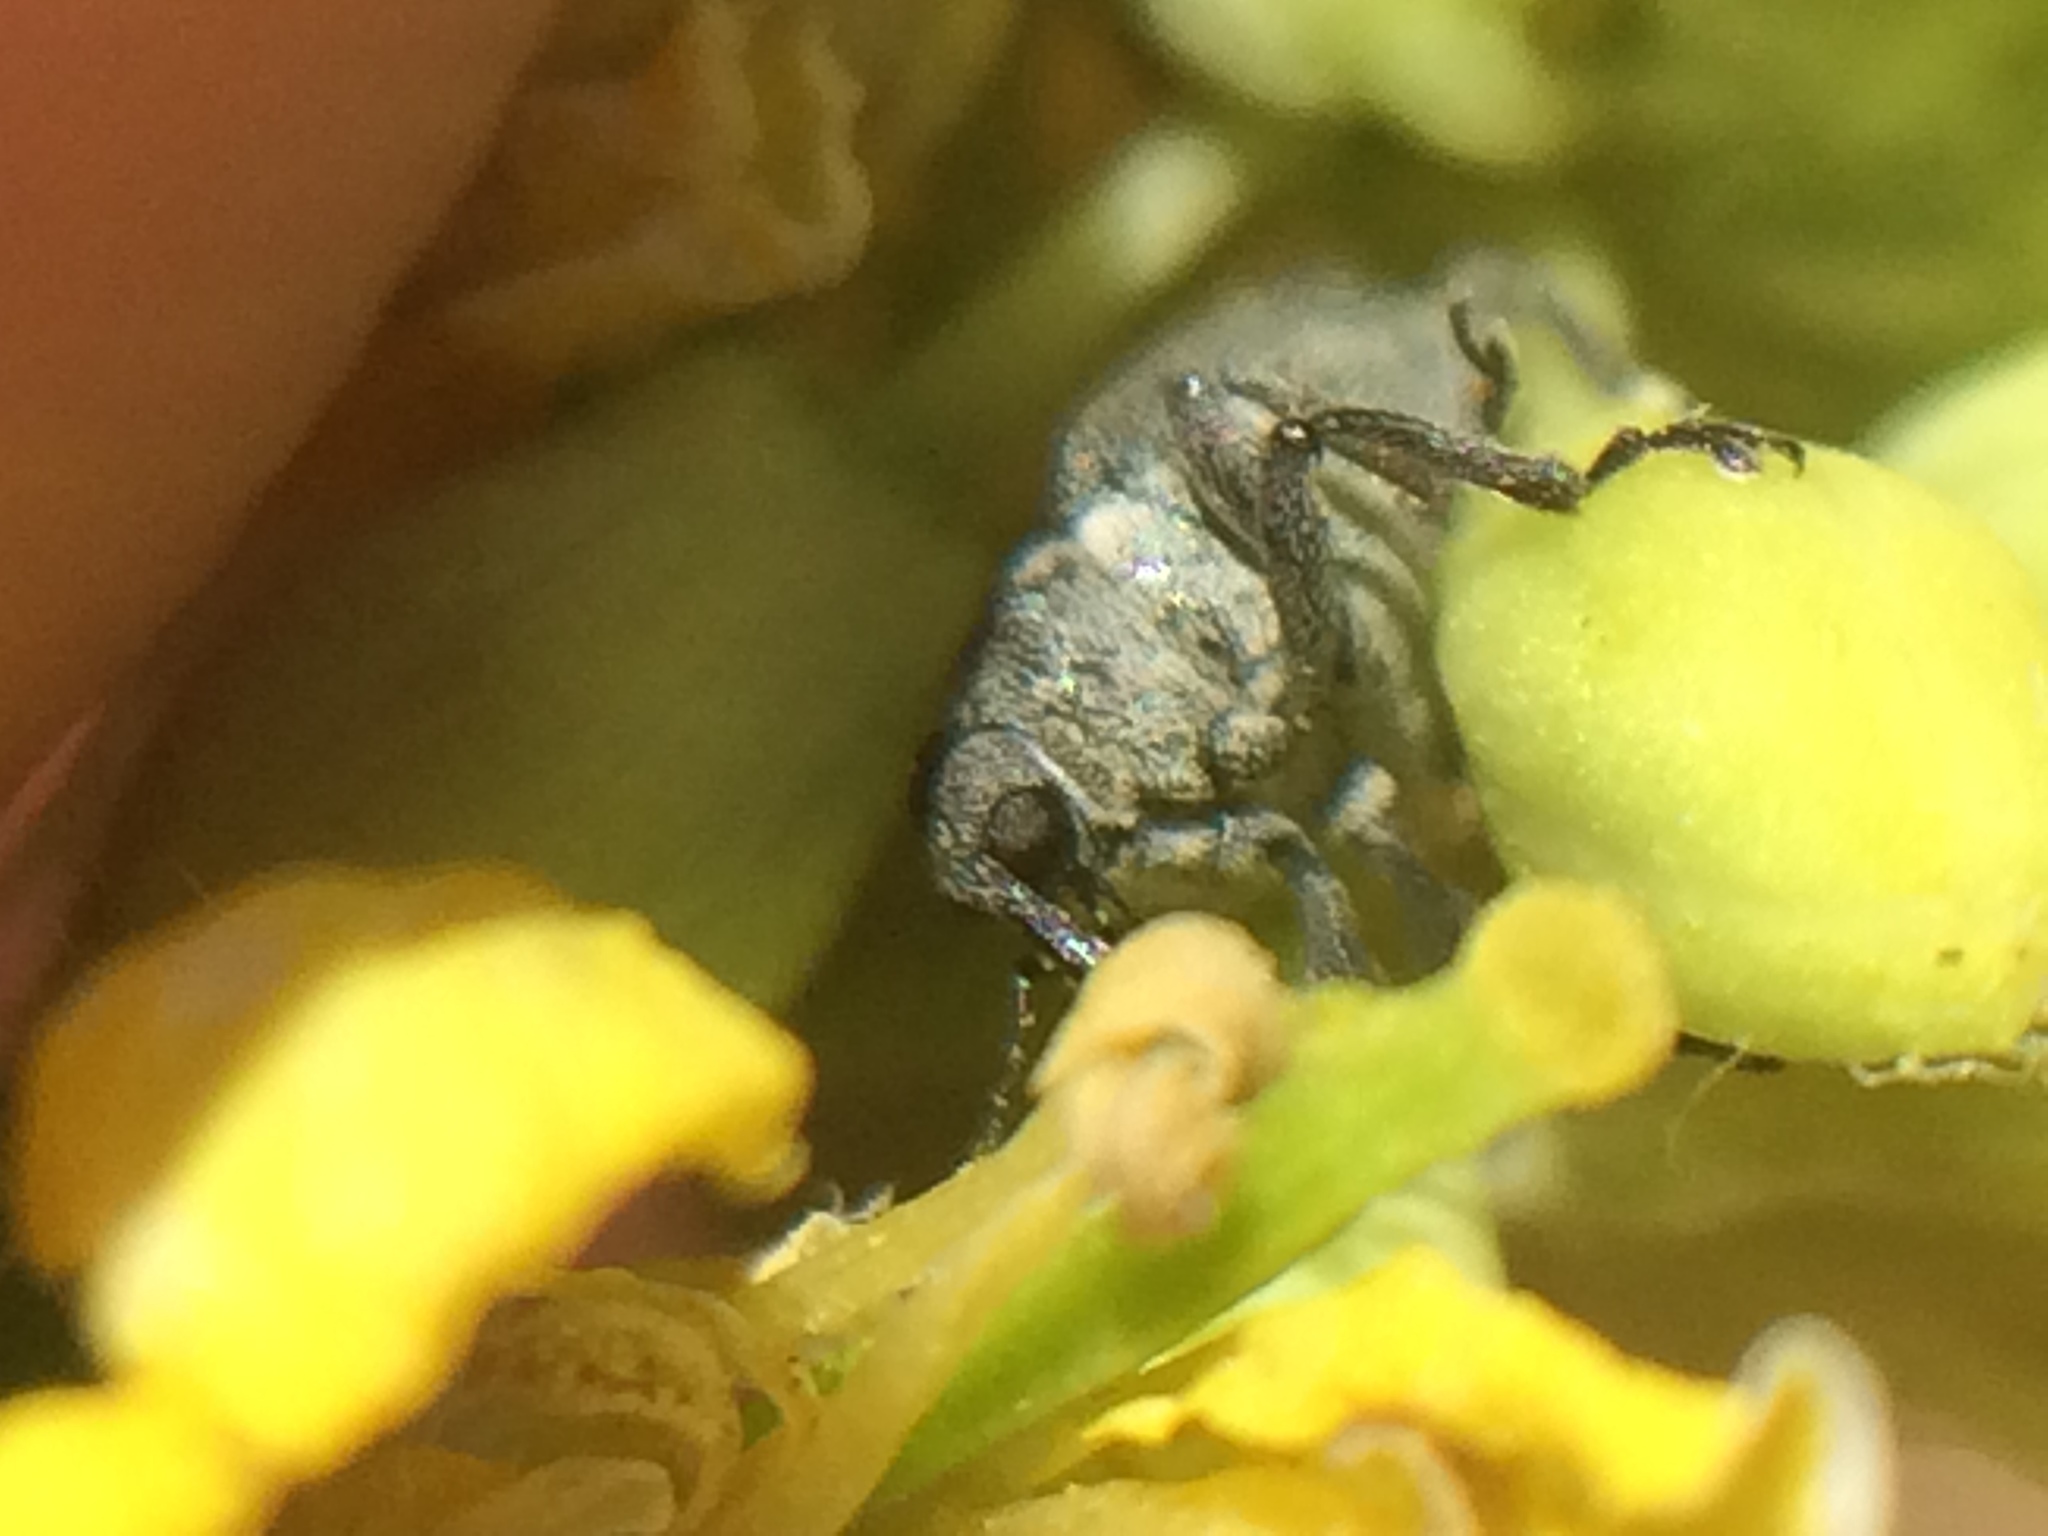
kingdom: Animalia
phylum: Arthropoda
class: Insecta
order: Coleoptera
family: Curculionidae
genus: Ceutorhynchus
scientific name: Ceutorhynchus obstrictus
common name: Cabbage seed weevil
